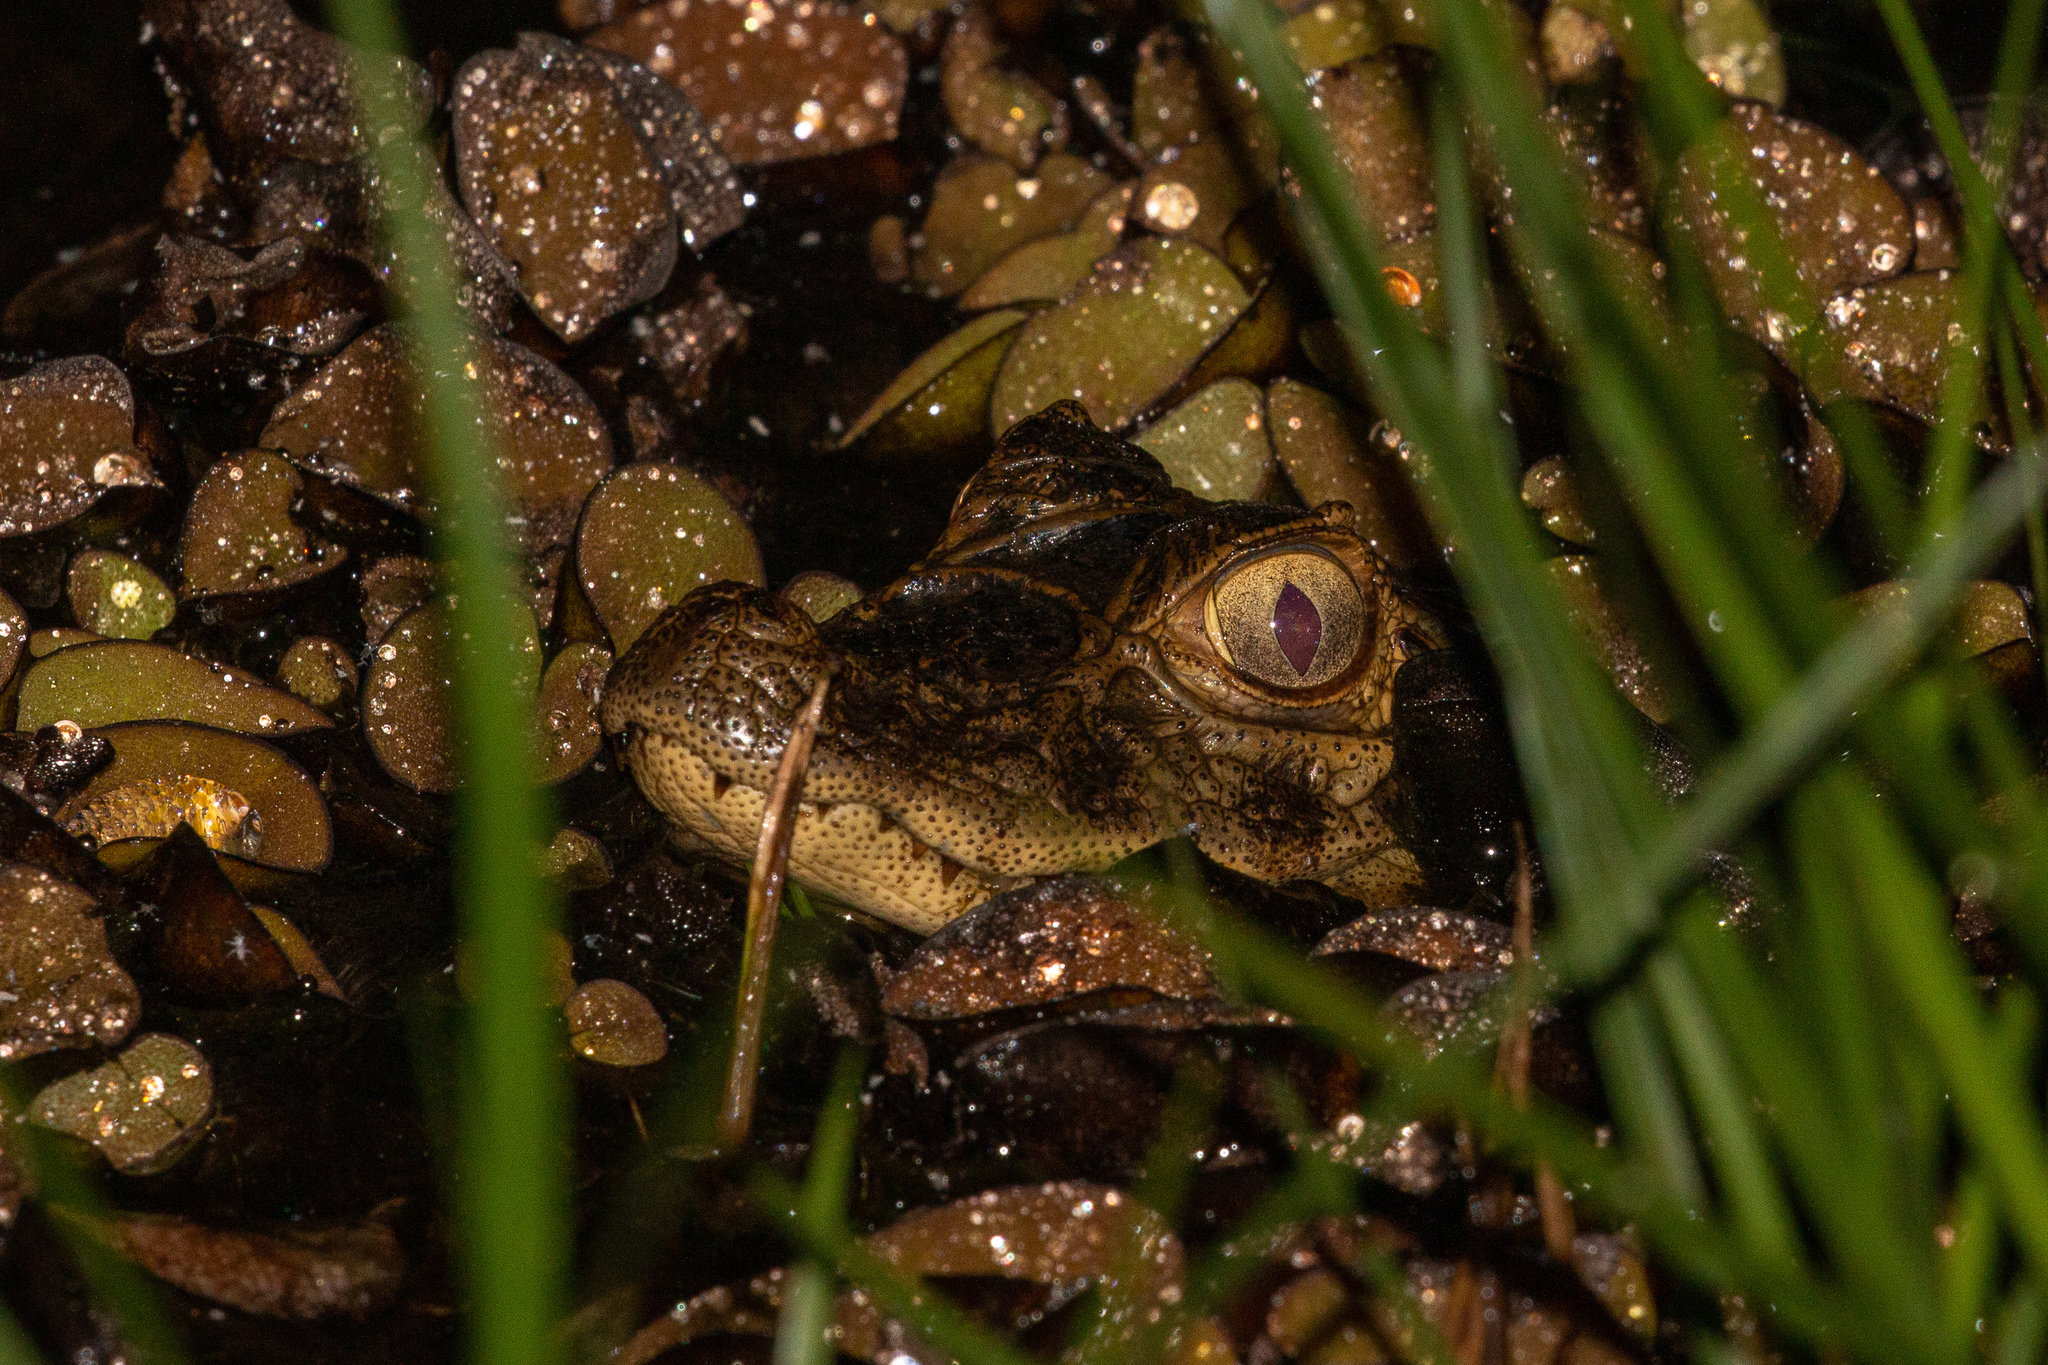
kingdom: Animalia
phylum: Chordata
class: Crocodylia
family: Alligatoridae
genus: Caiman
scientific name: Caiman latirostris
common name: Broad-snouted caiman
